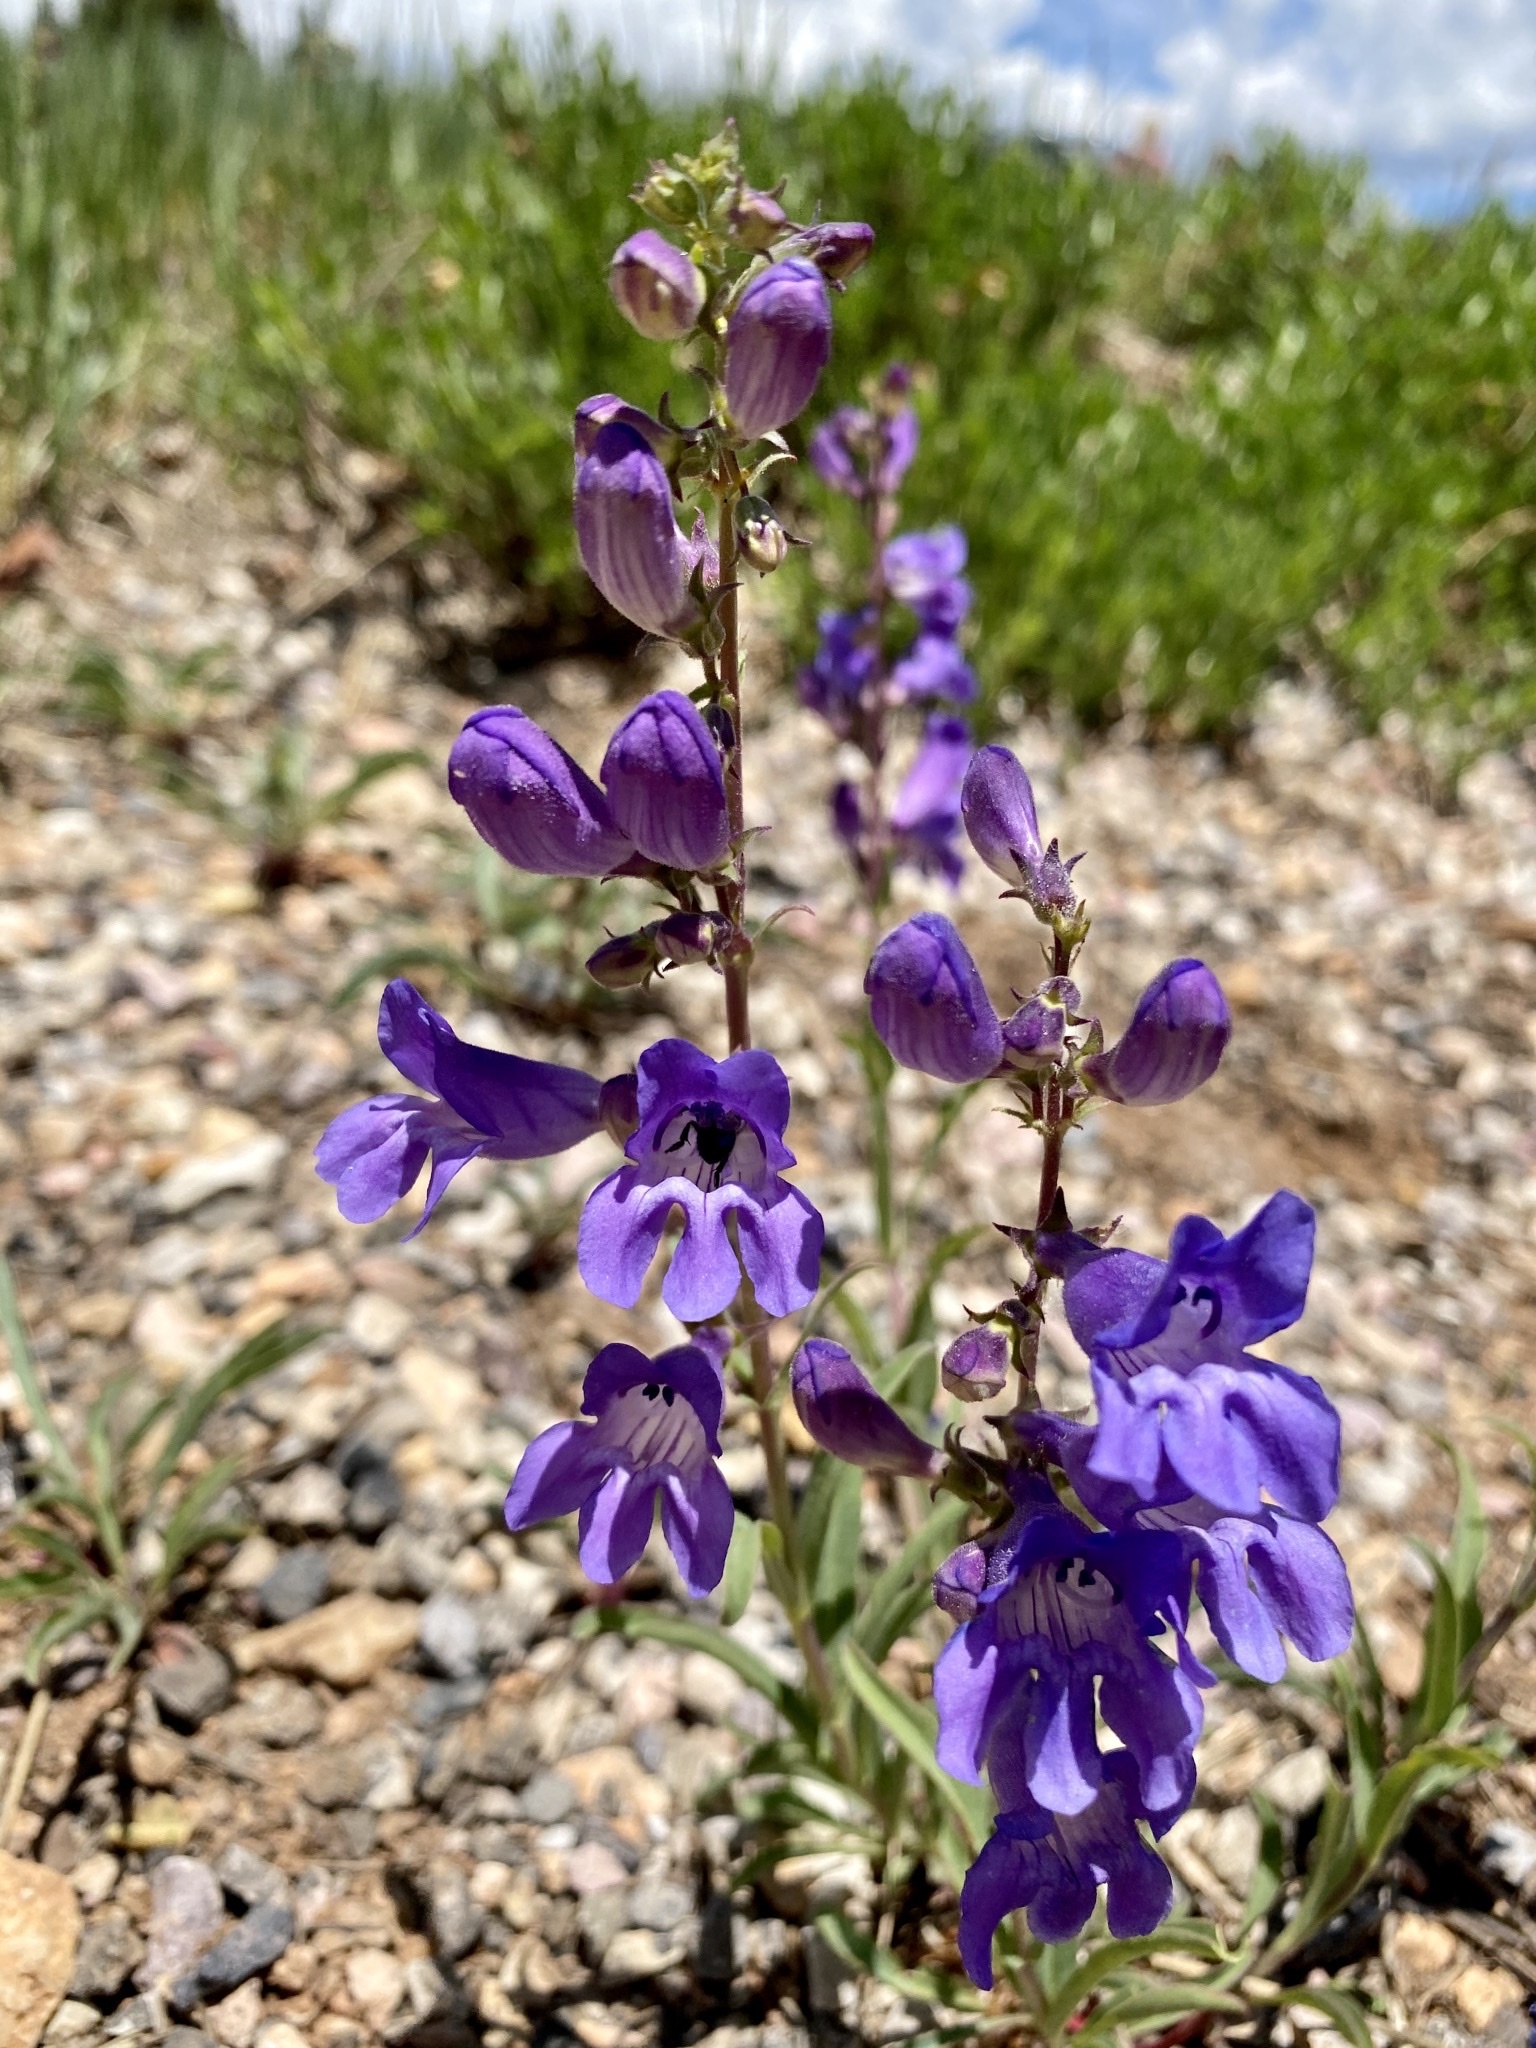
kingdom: Plantae
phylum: Tracheophyta
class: Magnoliopsida
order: Lamiales
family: Plantaginaceae
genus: Penstemon
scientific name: Penstemon leiophyllus
